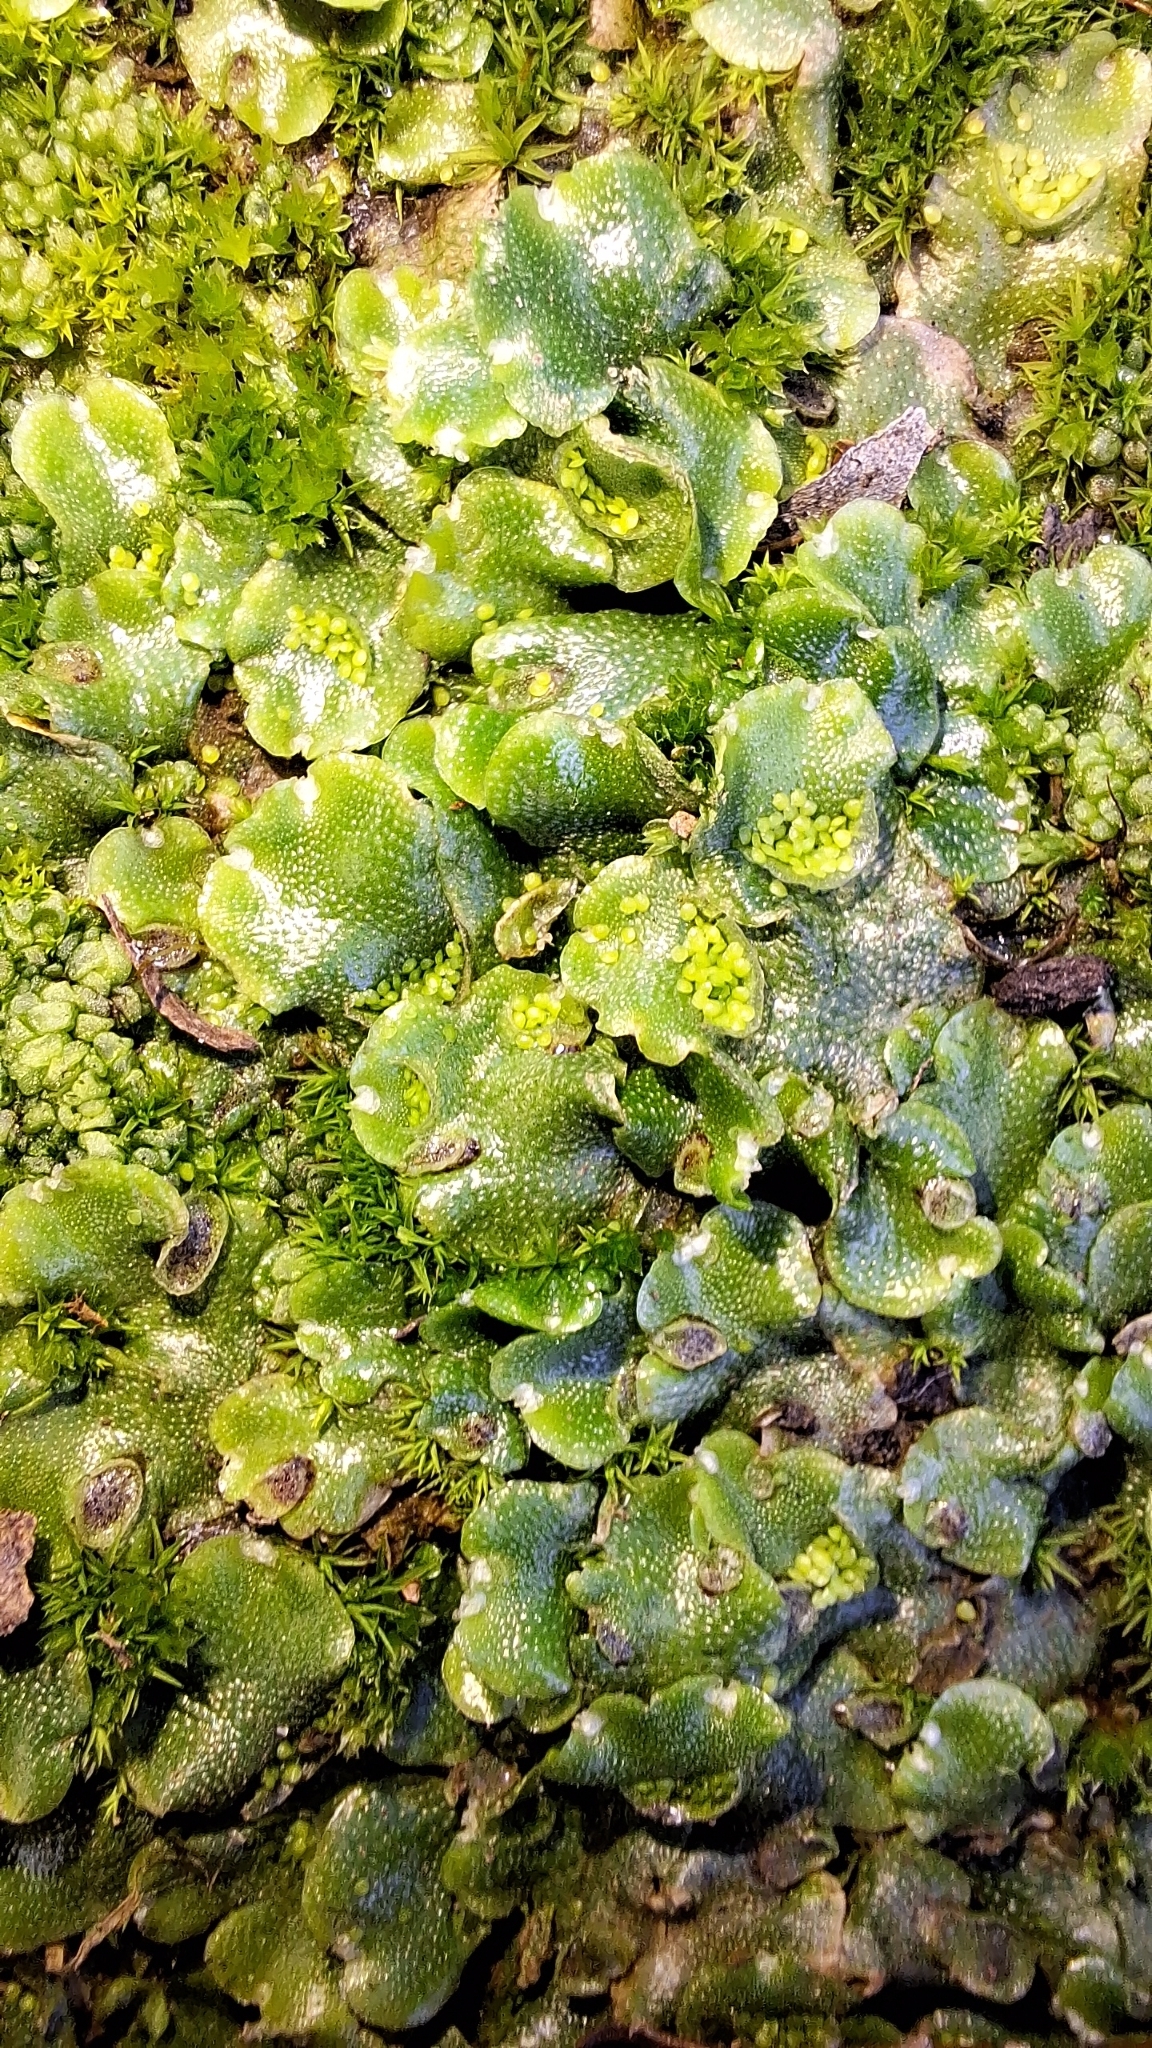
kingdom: Plantae
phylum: Marchantiophyta
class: Marchantiopsida
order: Lunulariales
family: Lunulariaceae
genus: Lunularia
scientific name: Lunularia cruciata
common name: Crescent-cup liverwort
